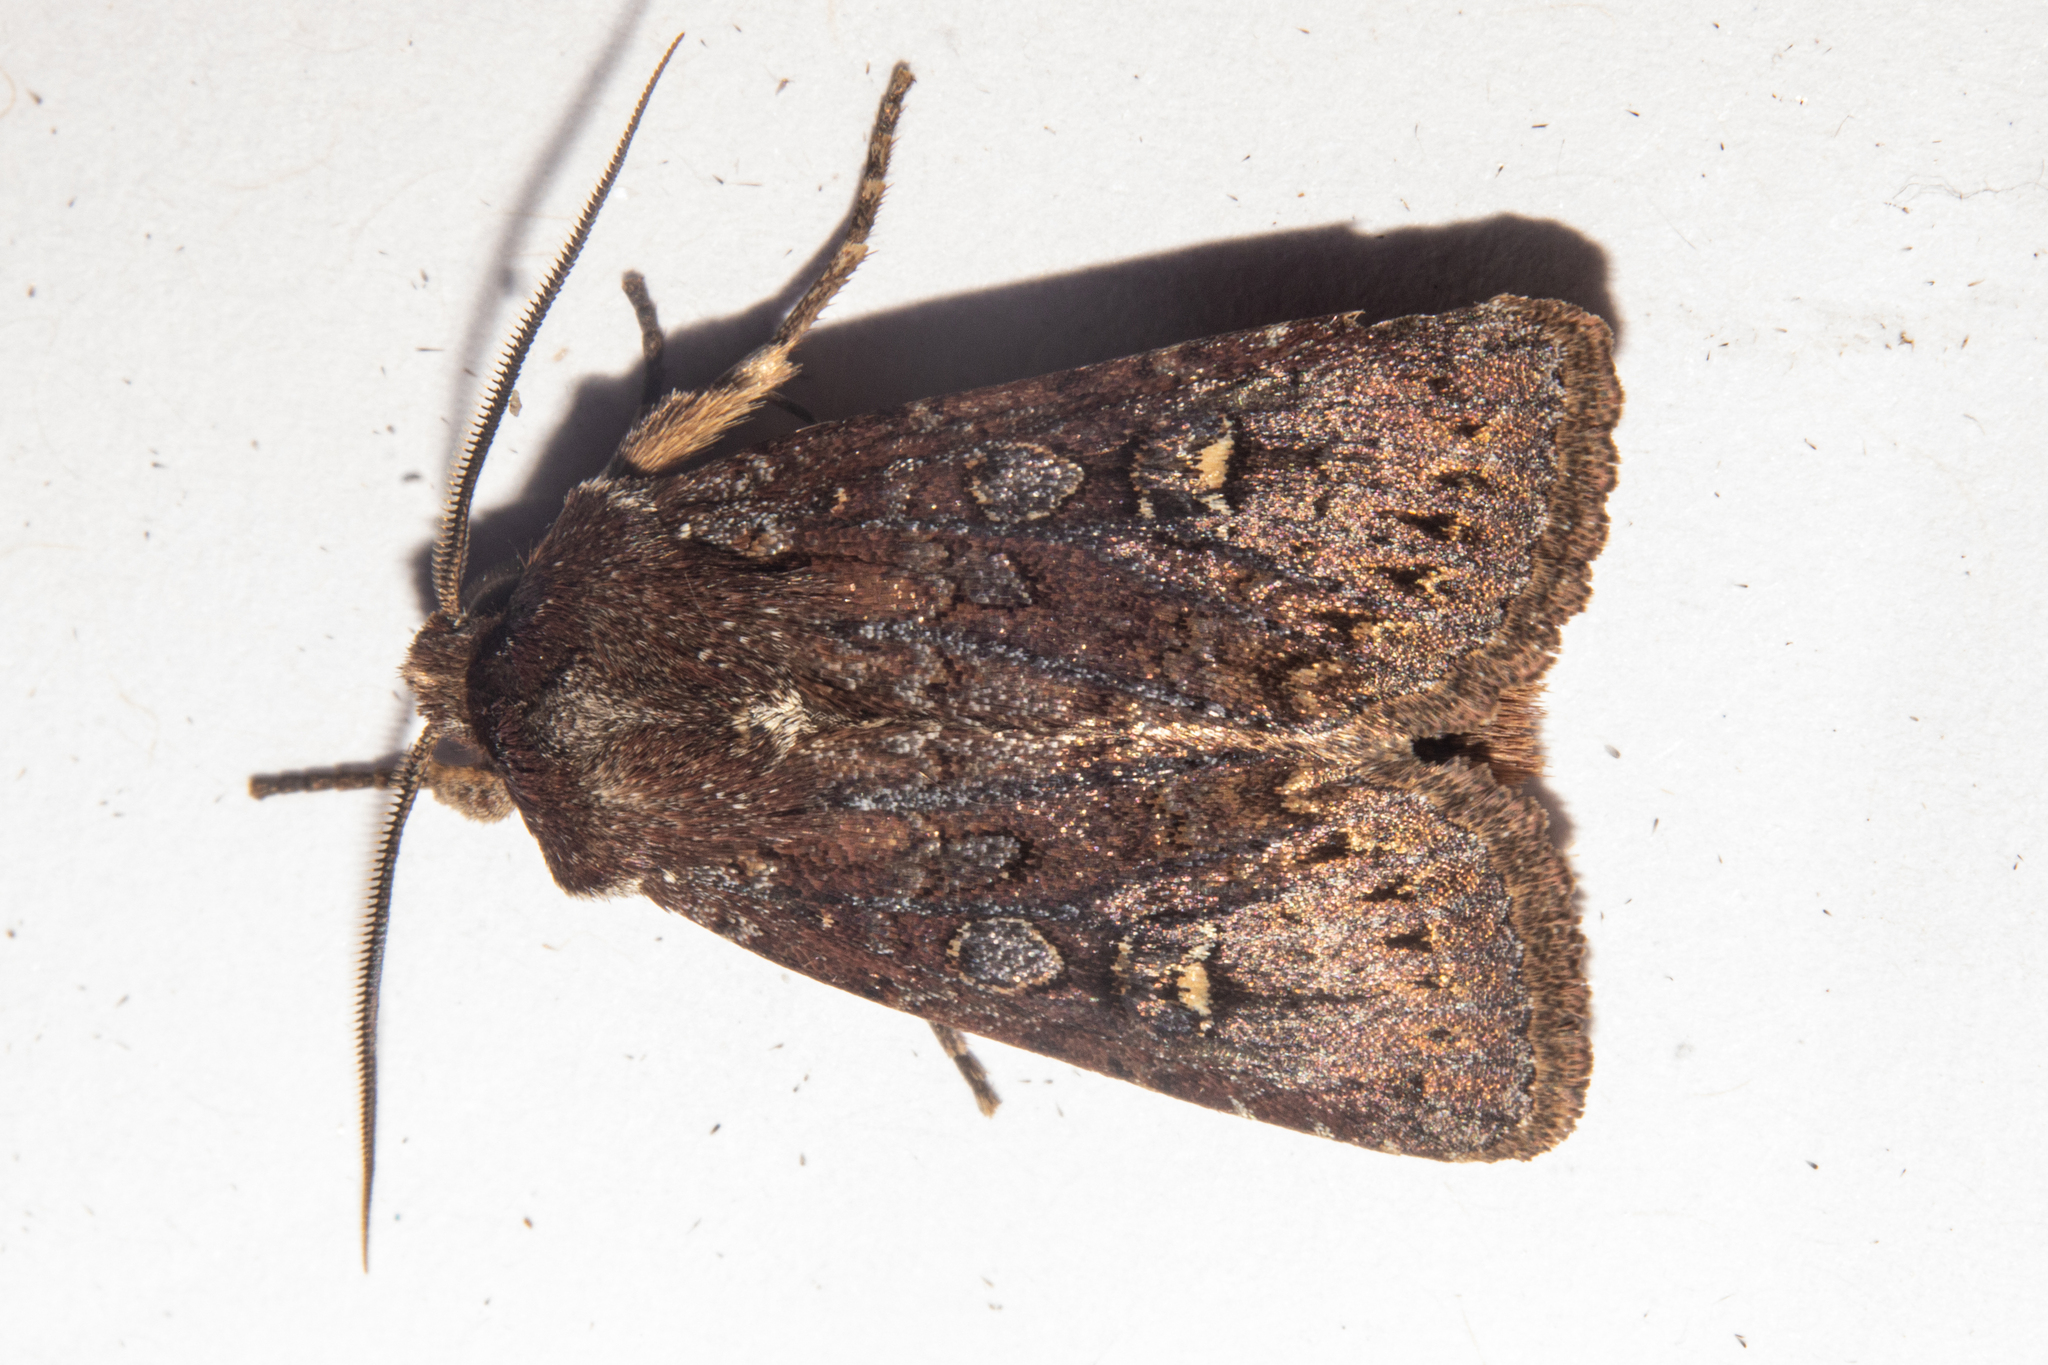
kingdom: Animalia
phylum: Arthropoda
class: Insecta
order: Lepidoptera
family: Noctuidae
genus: Ichneutica
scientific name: Ichneutica agorastis
